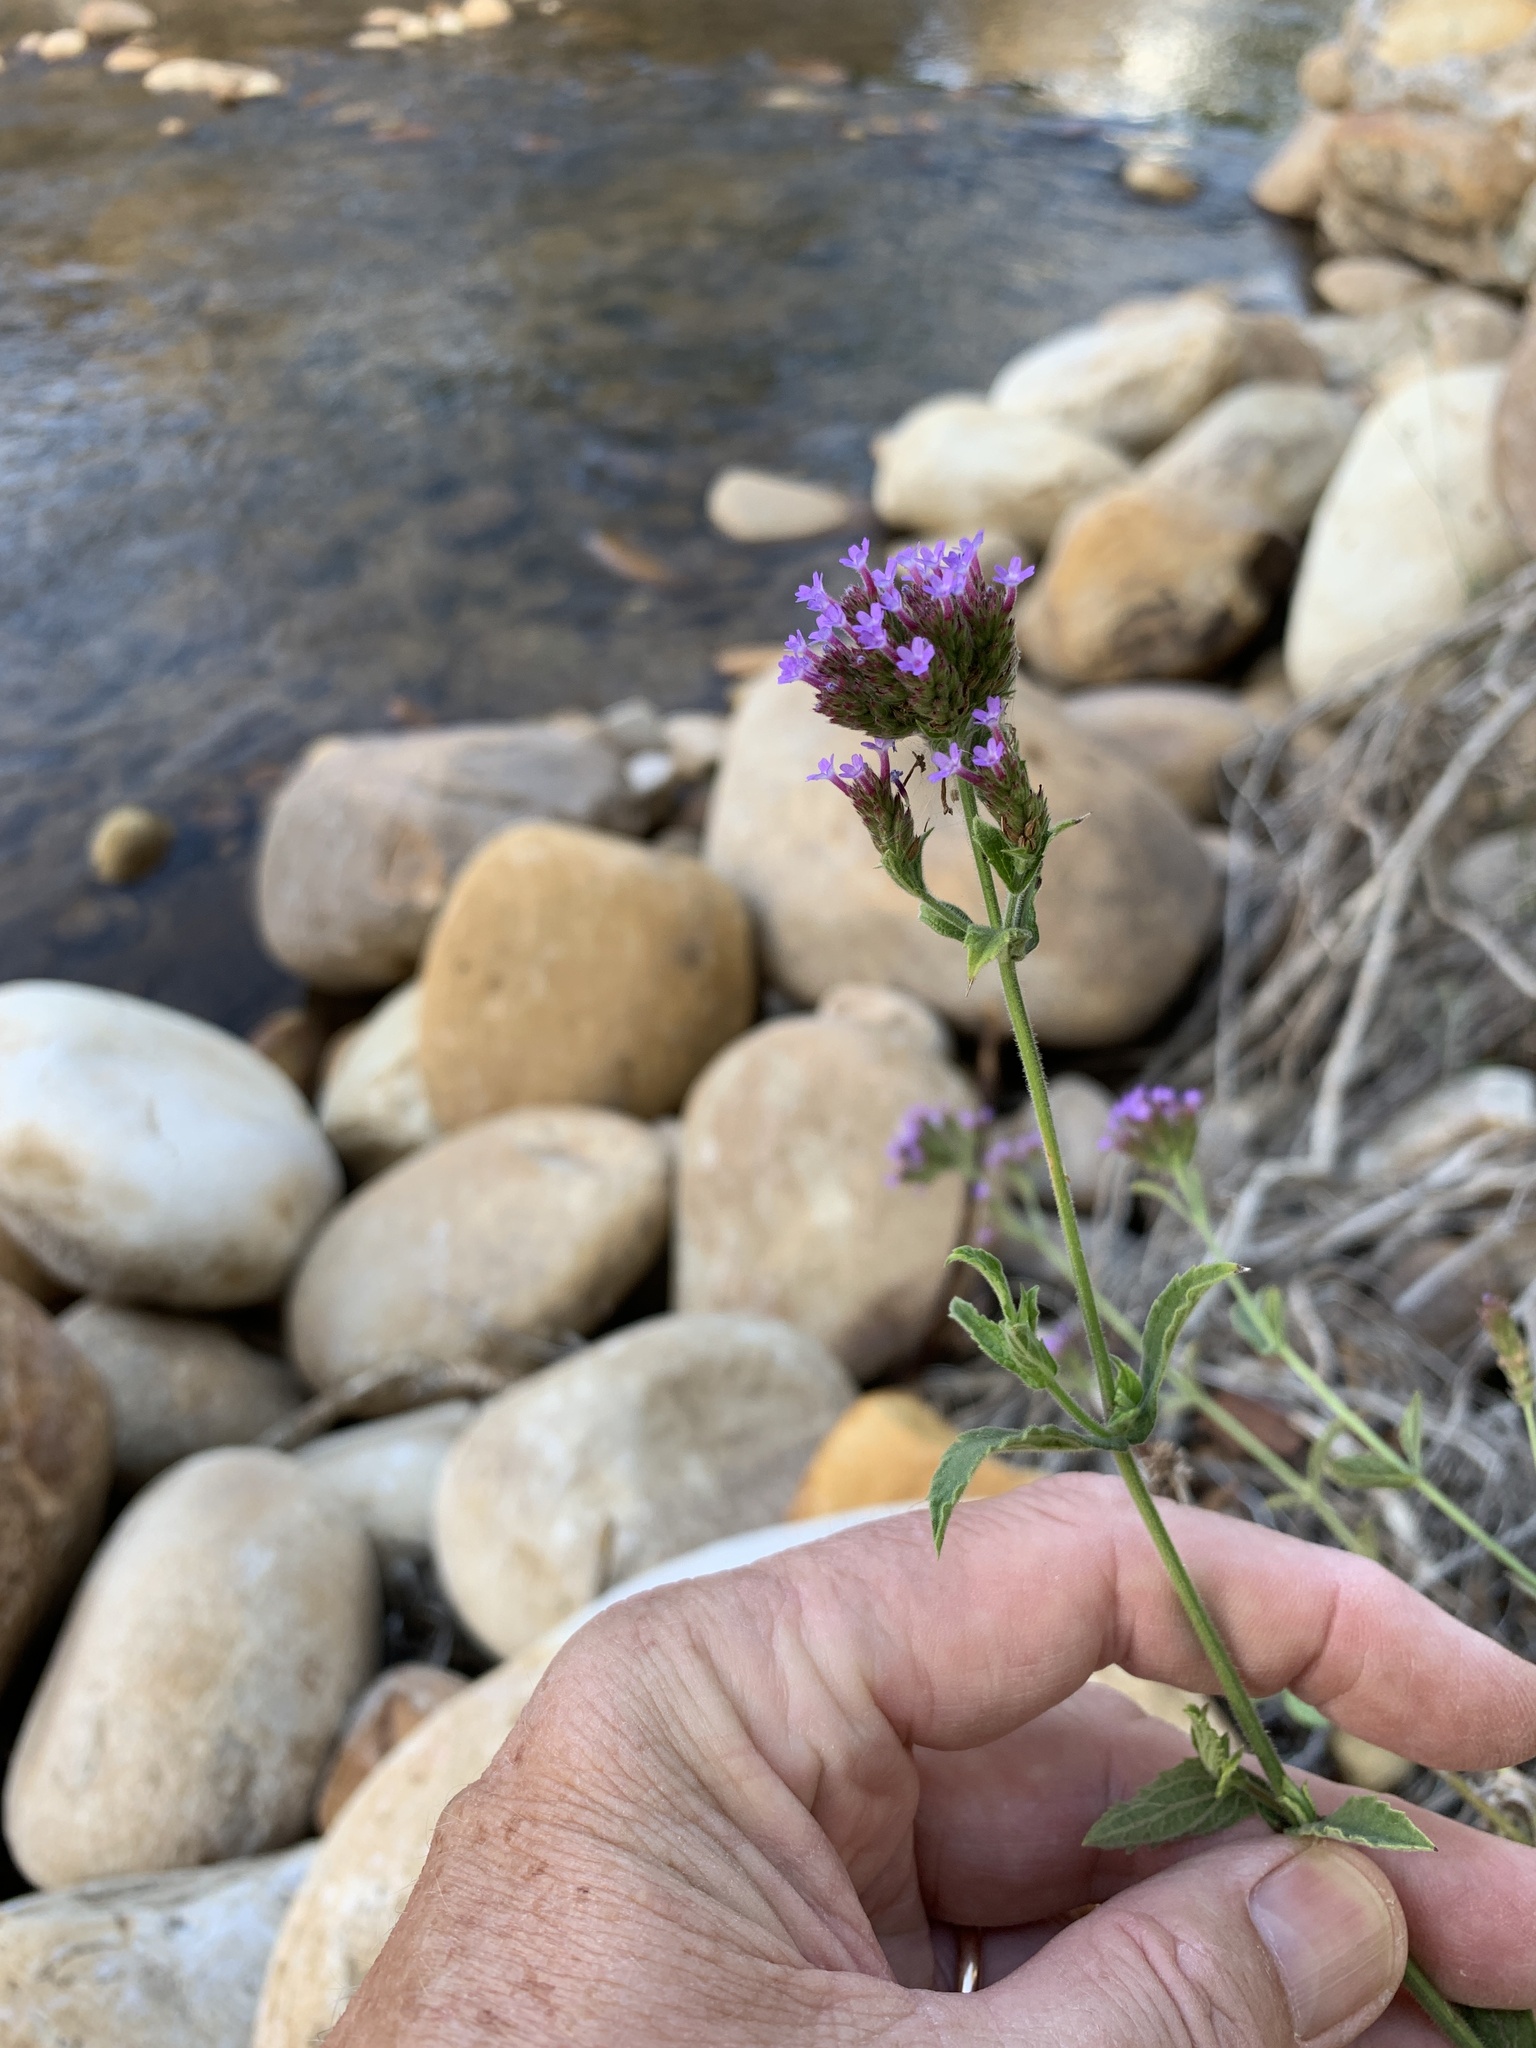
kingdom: Plantae
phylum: Tracheophyta
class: Magnoliopsida
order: Lamiales
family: Verbenaceae
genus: Verbena
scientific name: Verbena bonariensis
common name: Purpletop vervain
